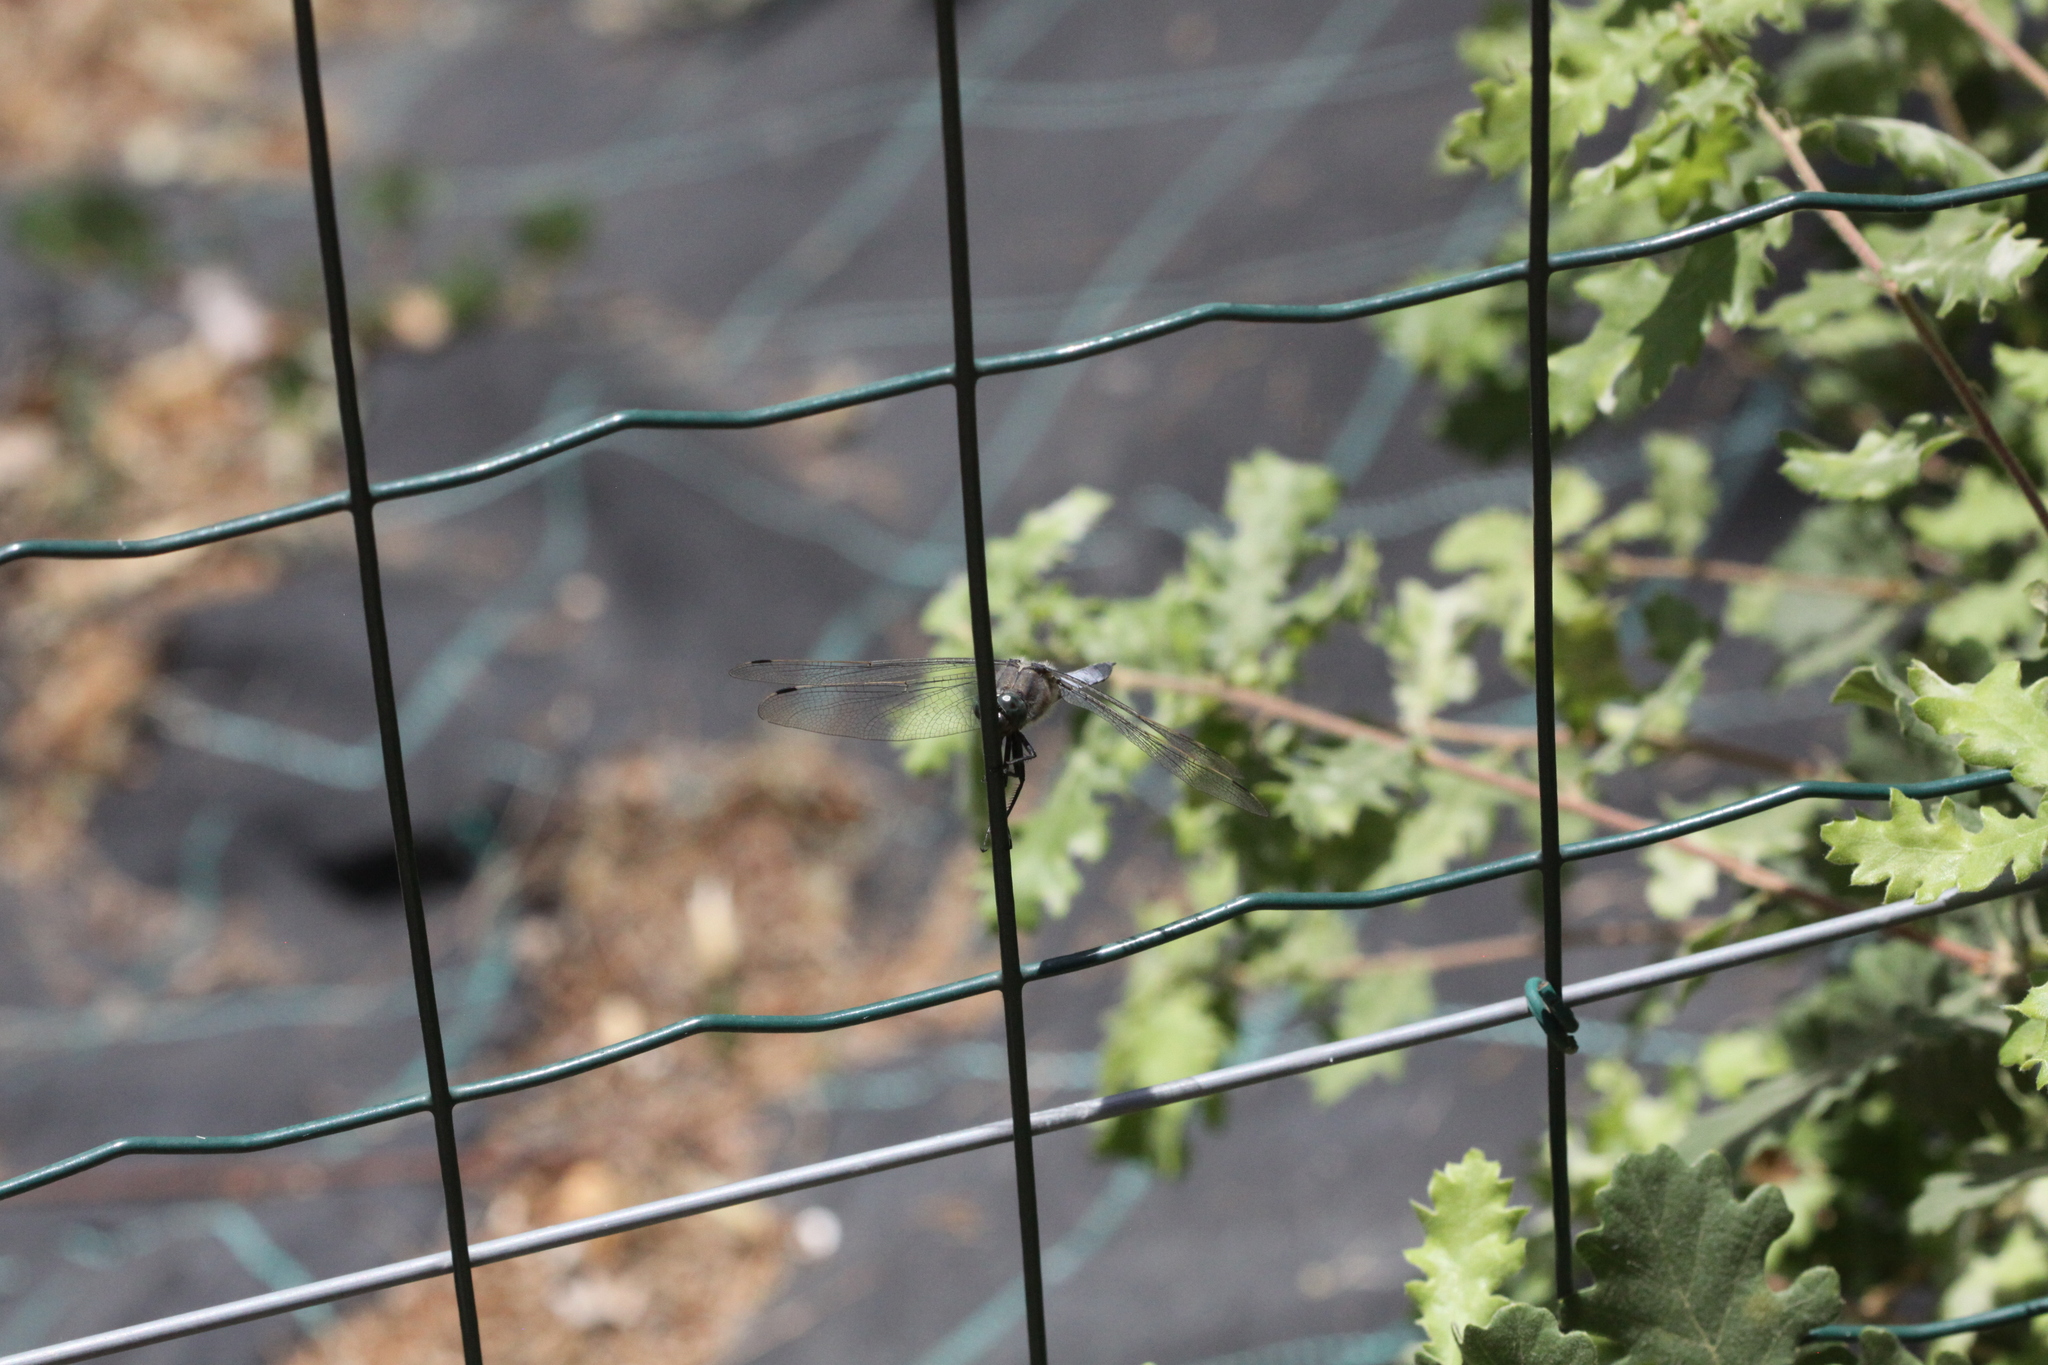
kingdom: Animalia
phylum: Arthropoda
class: Insecta
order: Odonata
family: Libellulidae
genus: Orthetrum
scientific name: Orthetrum cancellatum
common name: Black-tailed skimmer
